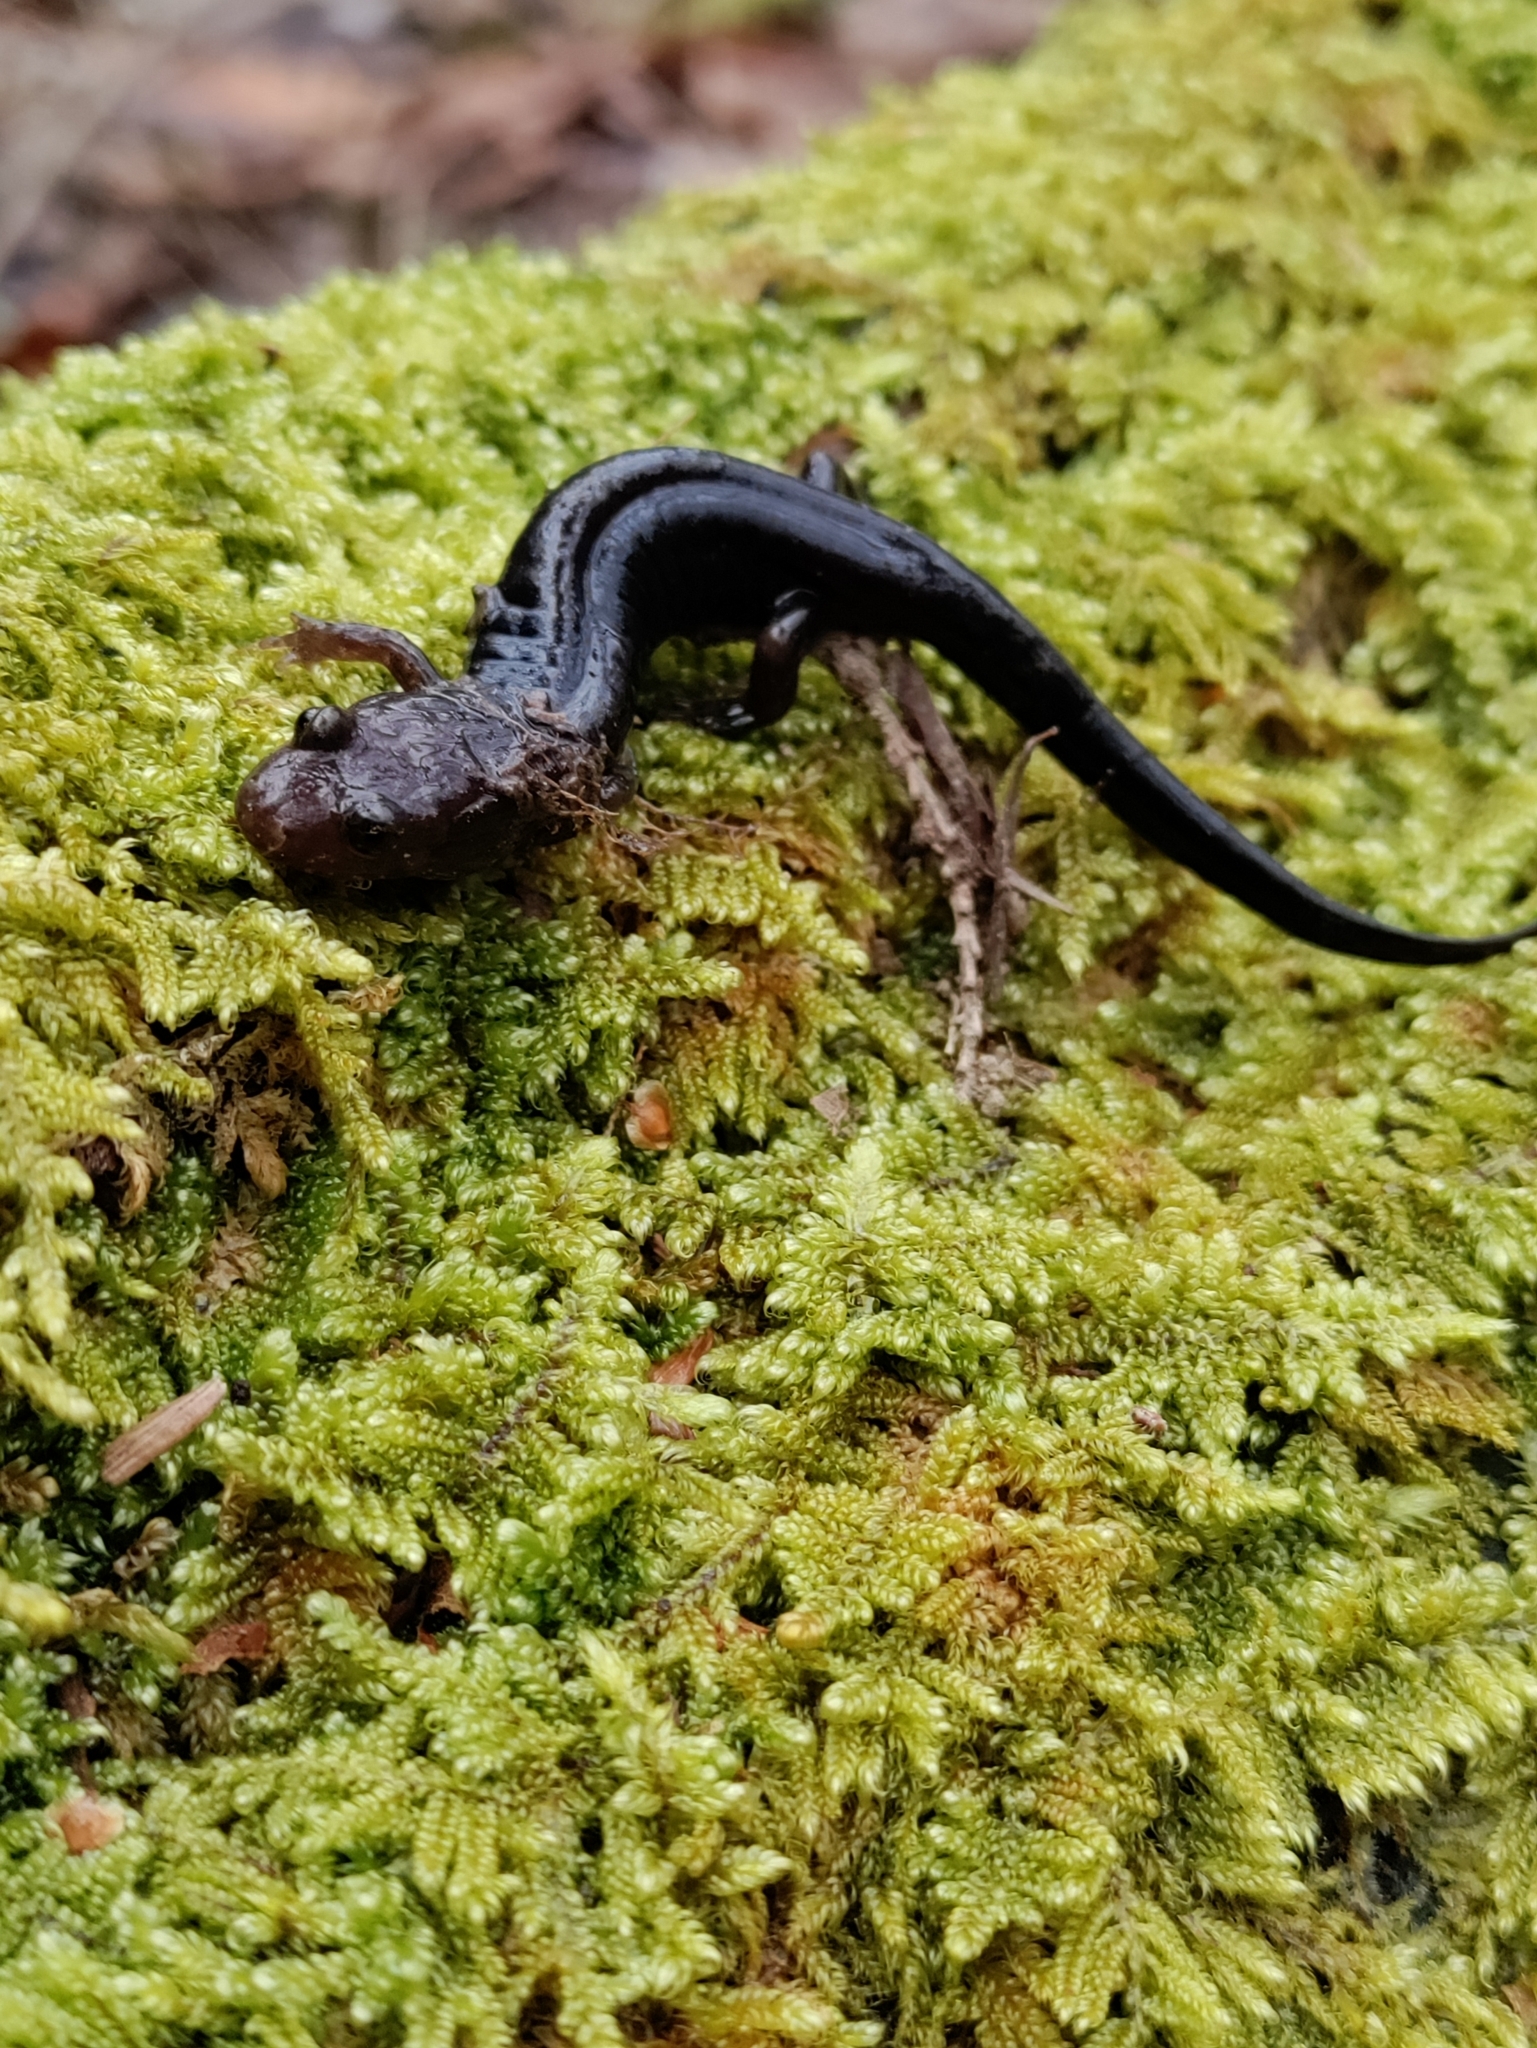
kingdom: Animalia
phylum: Chordata
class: Amphibia
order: Caudata
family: Plethodontidae
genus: Desmognathus
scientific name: Desmognathus ochrophaeus
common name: Allegheny mountain dusky salamander
